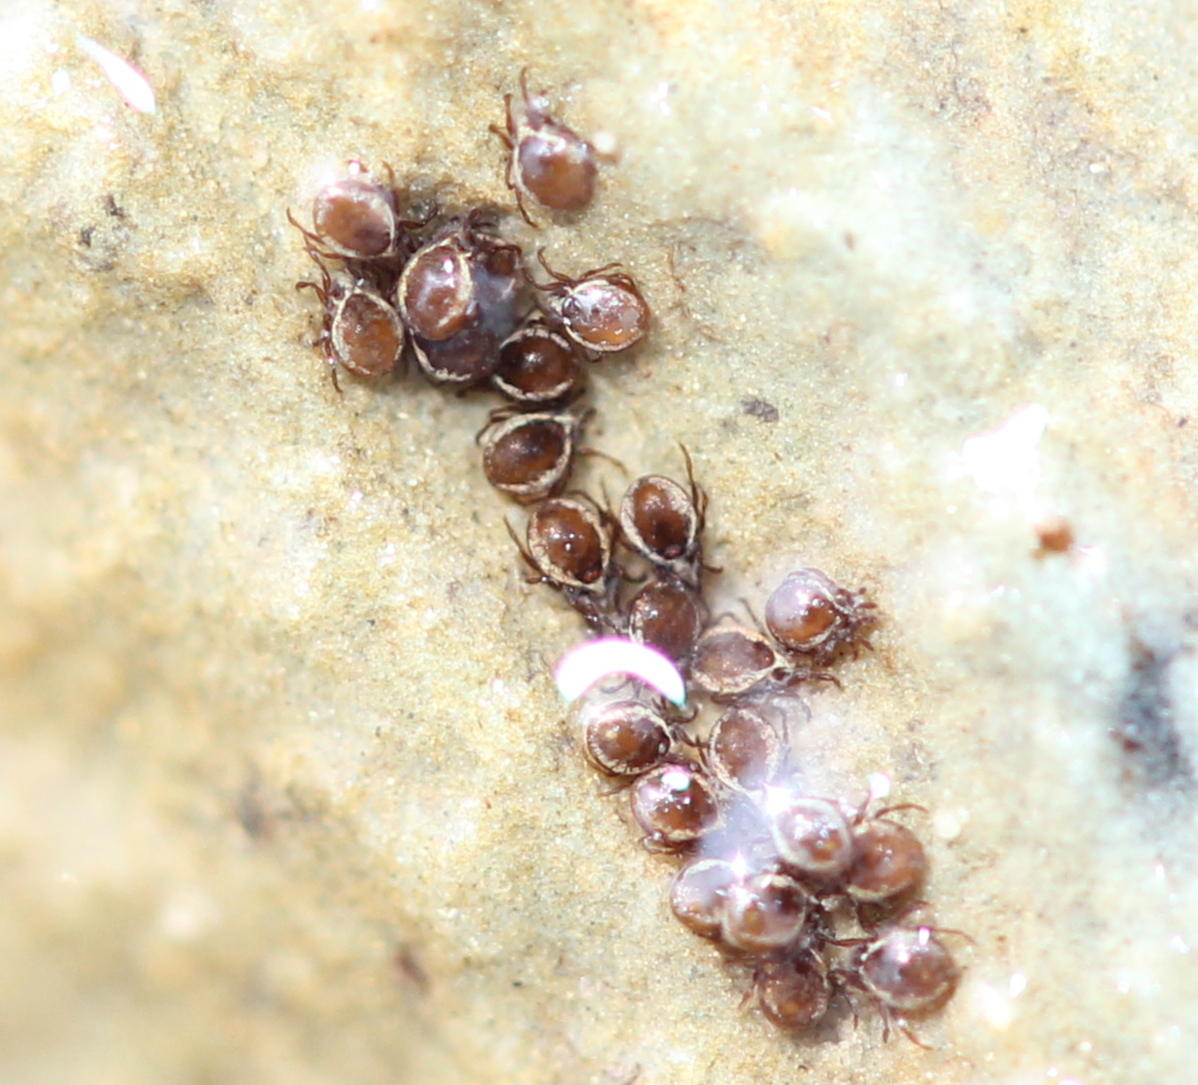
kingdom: Animalia
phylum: Arthropoda
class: Arachnida
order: Sarcoptiformes
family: Hydrozetidae
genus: Hydrozetes
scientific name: Hydrozetes
